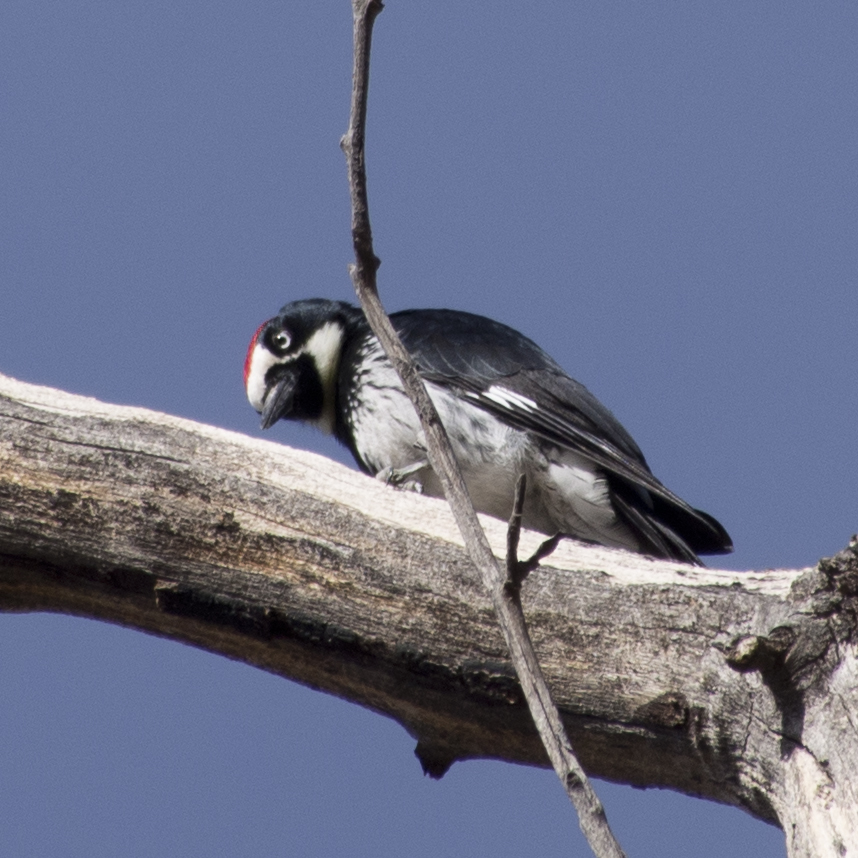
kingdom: Animalia
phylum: Chordata
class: Aves
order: Piciformes
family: Picidae
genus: Melanerpes
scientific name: Melanerpes formicivorus
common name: Acorn woodpecker
